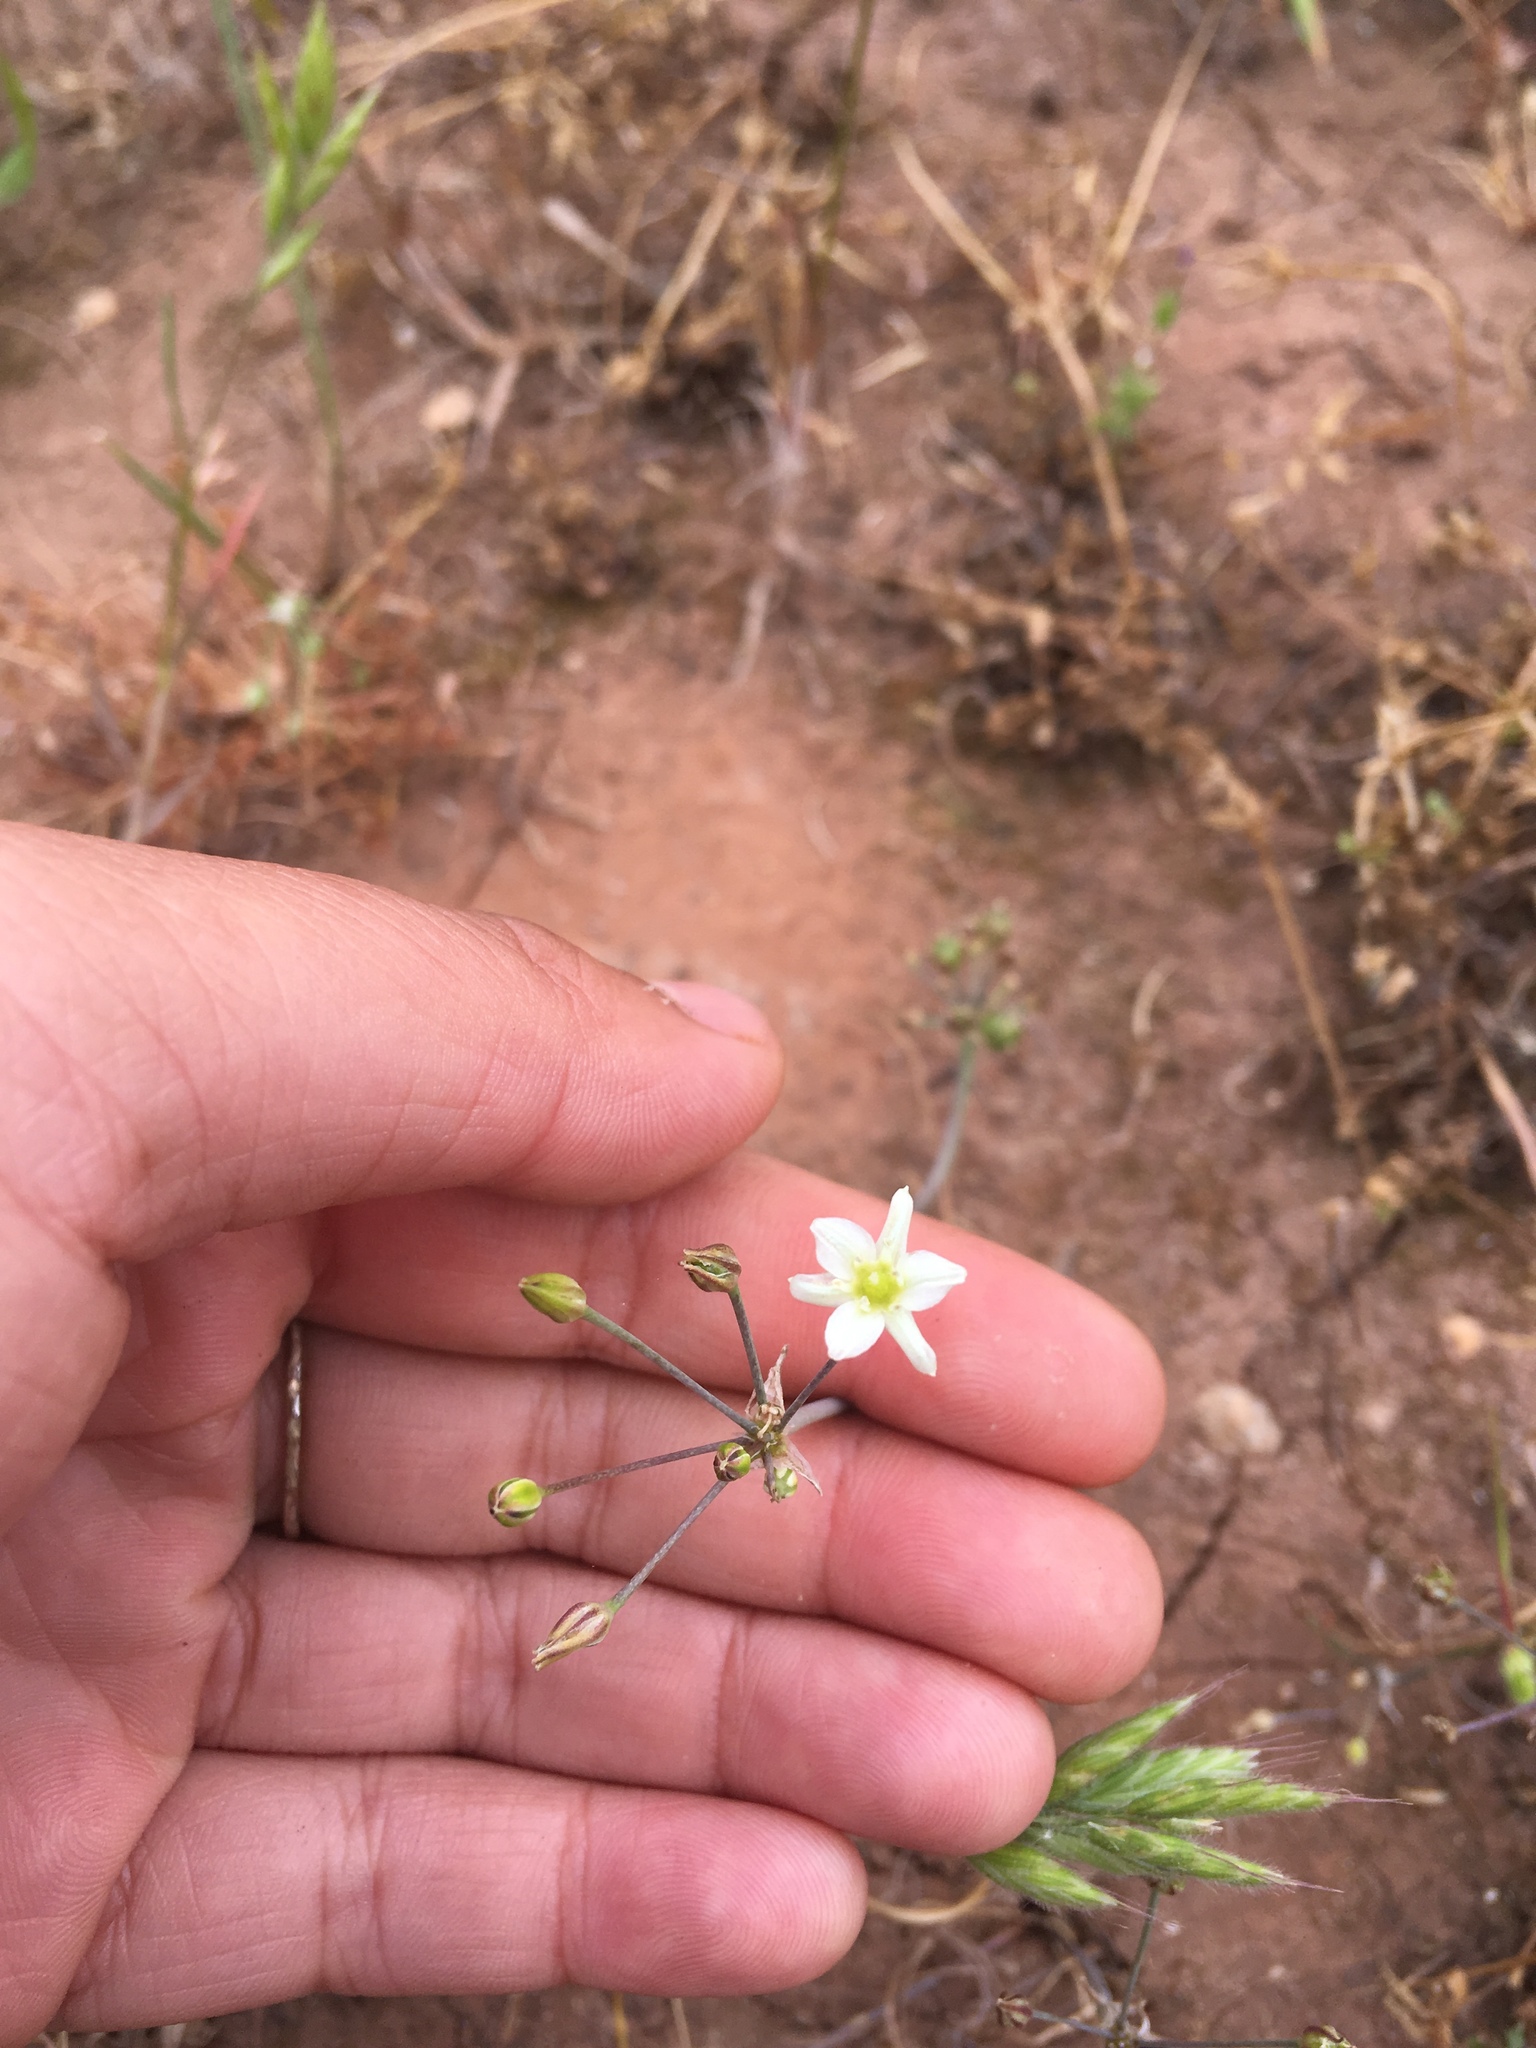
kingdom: Plantae
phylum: Tracheophyta
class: Liliopsida
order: Asparagales
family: Asparagaceae
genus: Muilla
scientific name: Muilla maritima
